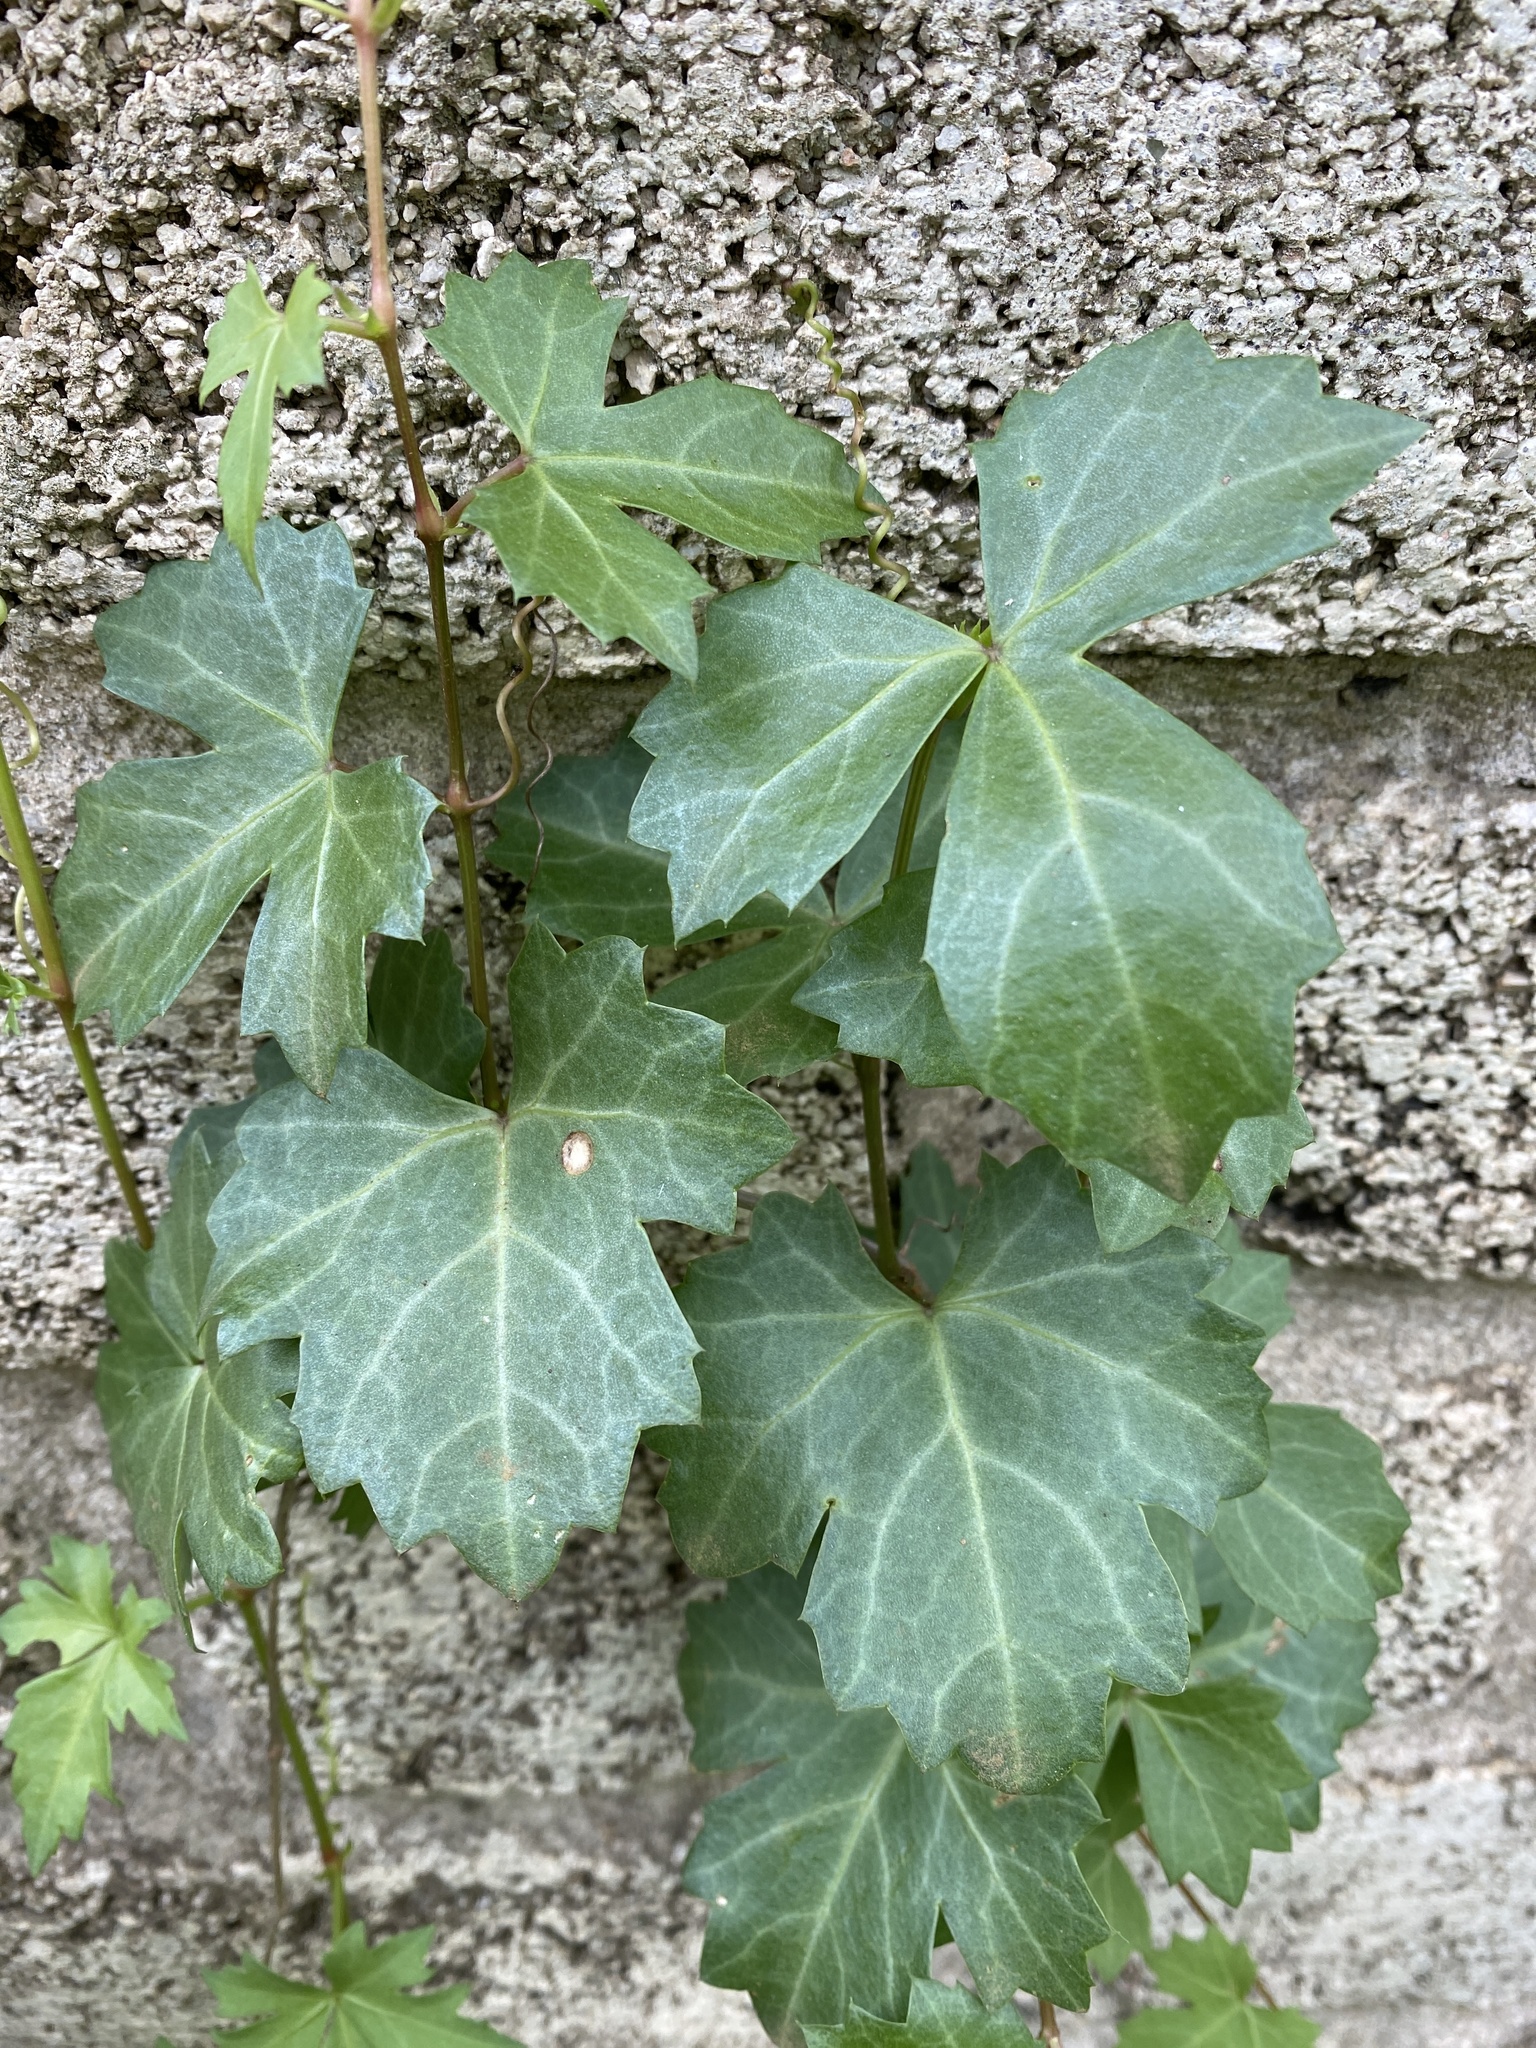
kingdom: Plantae
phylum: Tracheophyta
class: Magnoliopsida
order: Vitales
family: Vitaceae
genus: Cissus
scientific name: Cissus trifoliata
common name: Vine-sorrel
